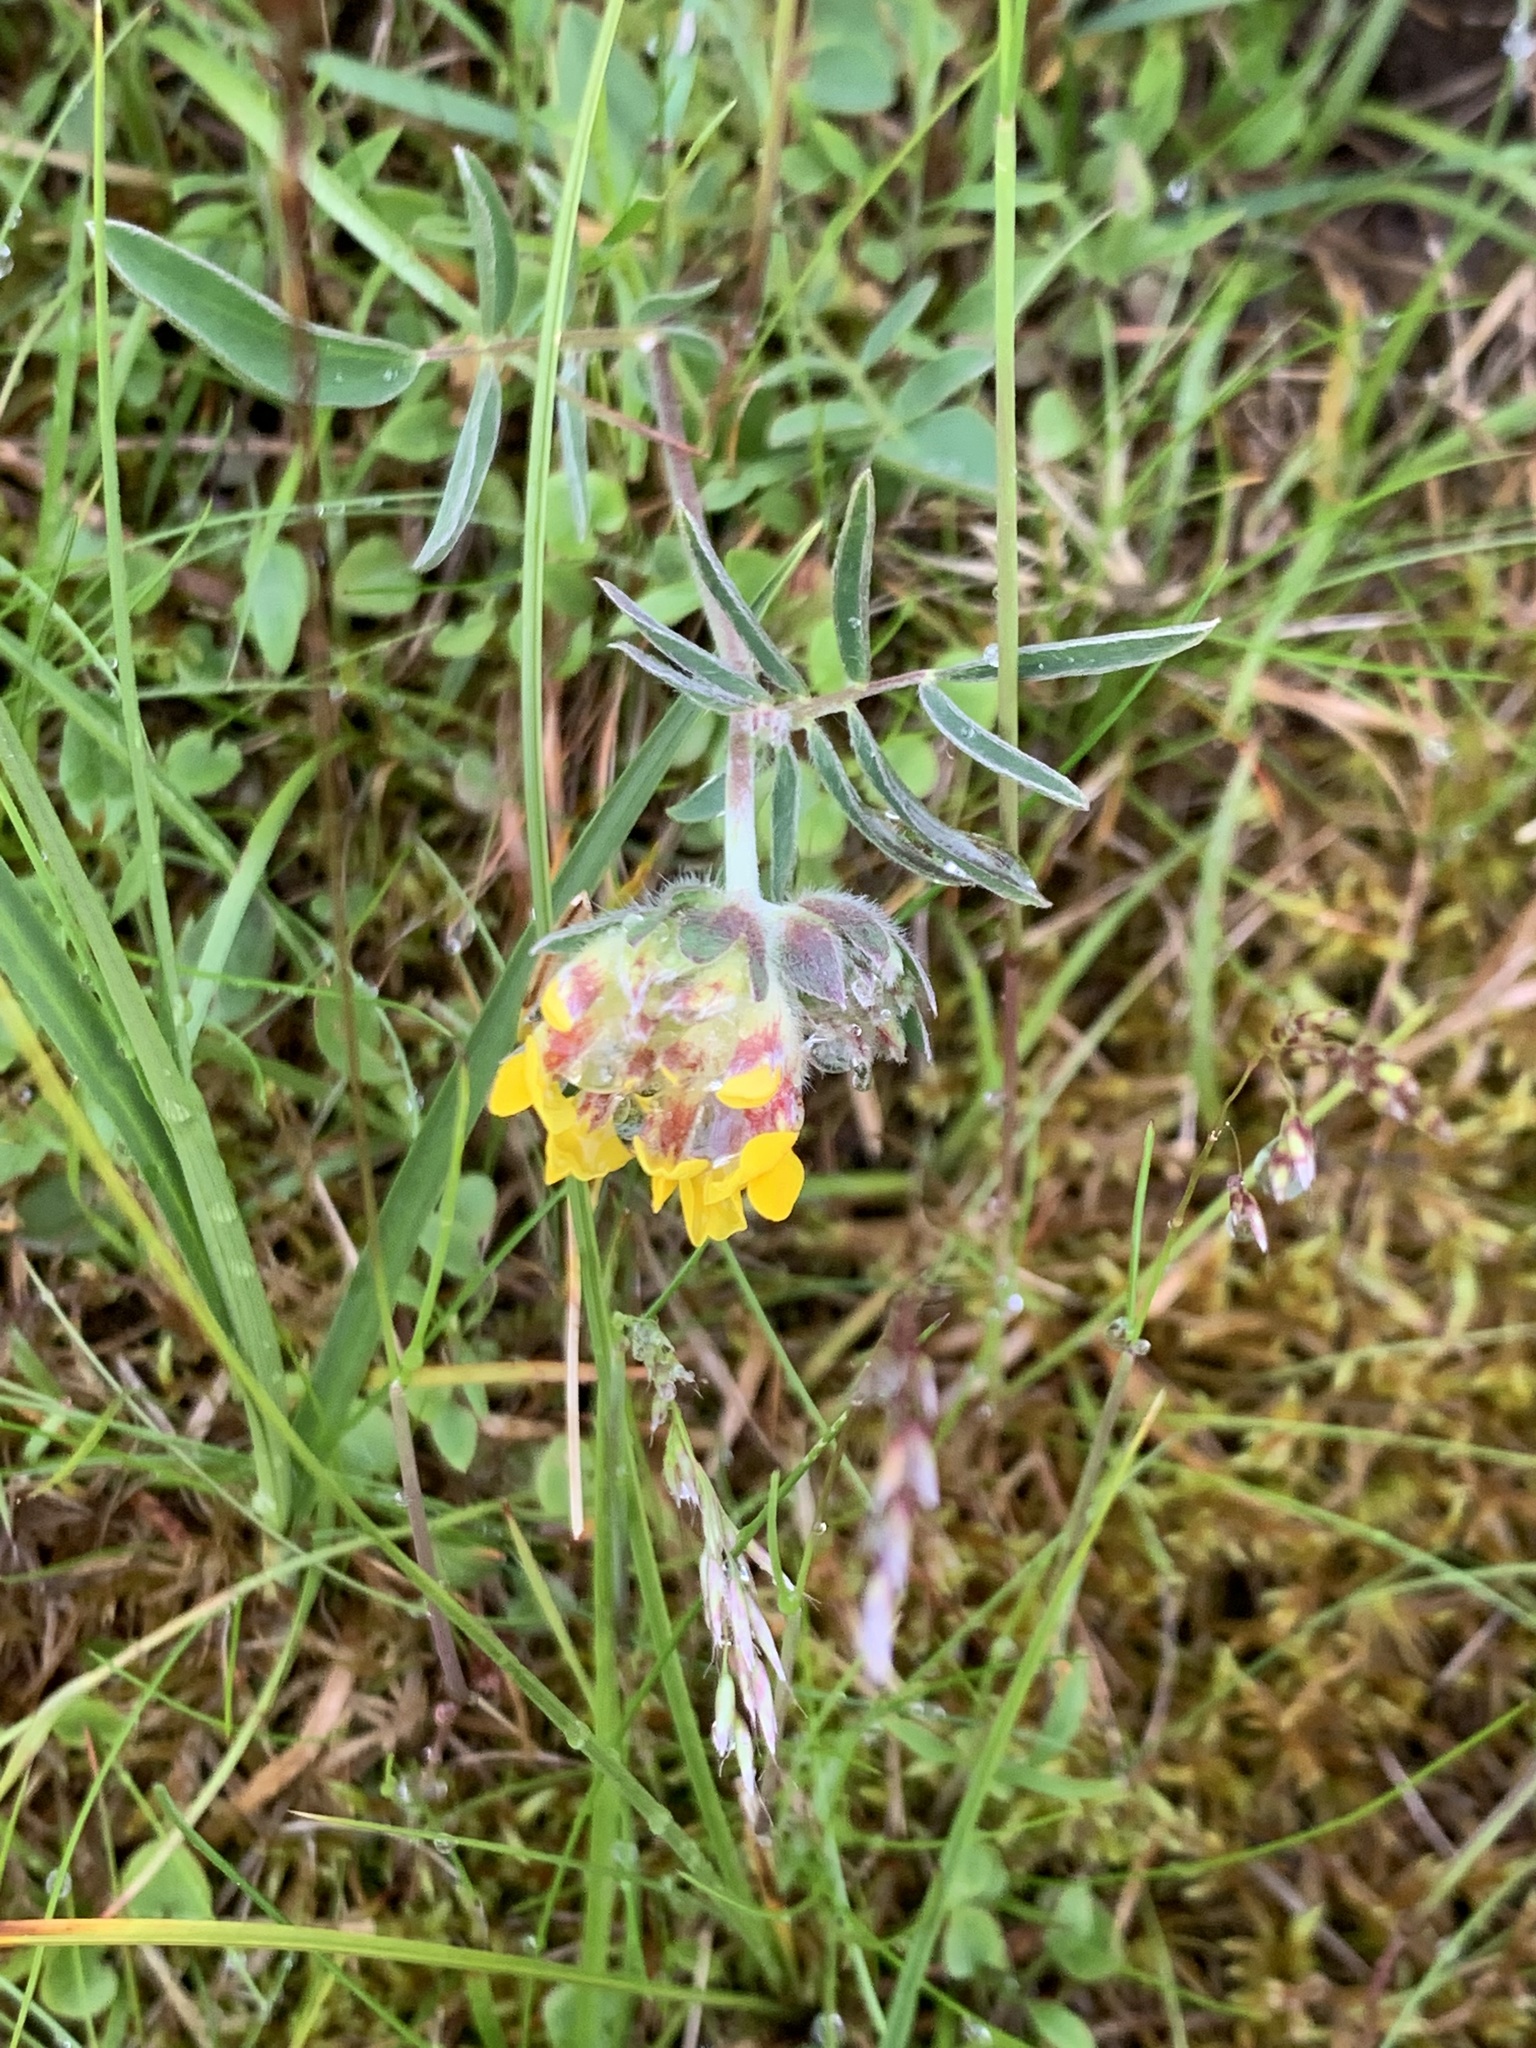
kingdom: Plantae
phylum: Tracheophyta
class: Magnoliopsida
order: Fabales
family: Fabaceae
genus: Anthyllis
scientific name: Anthyllis vulneraria
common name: Kidney vetch
